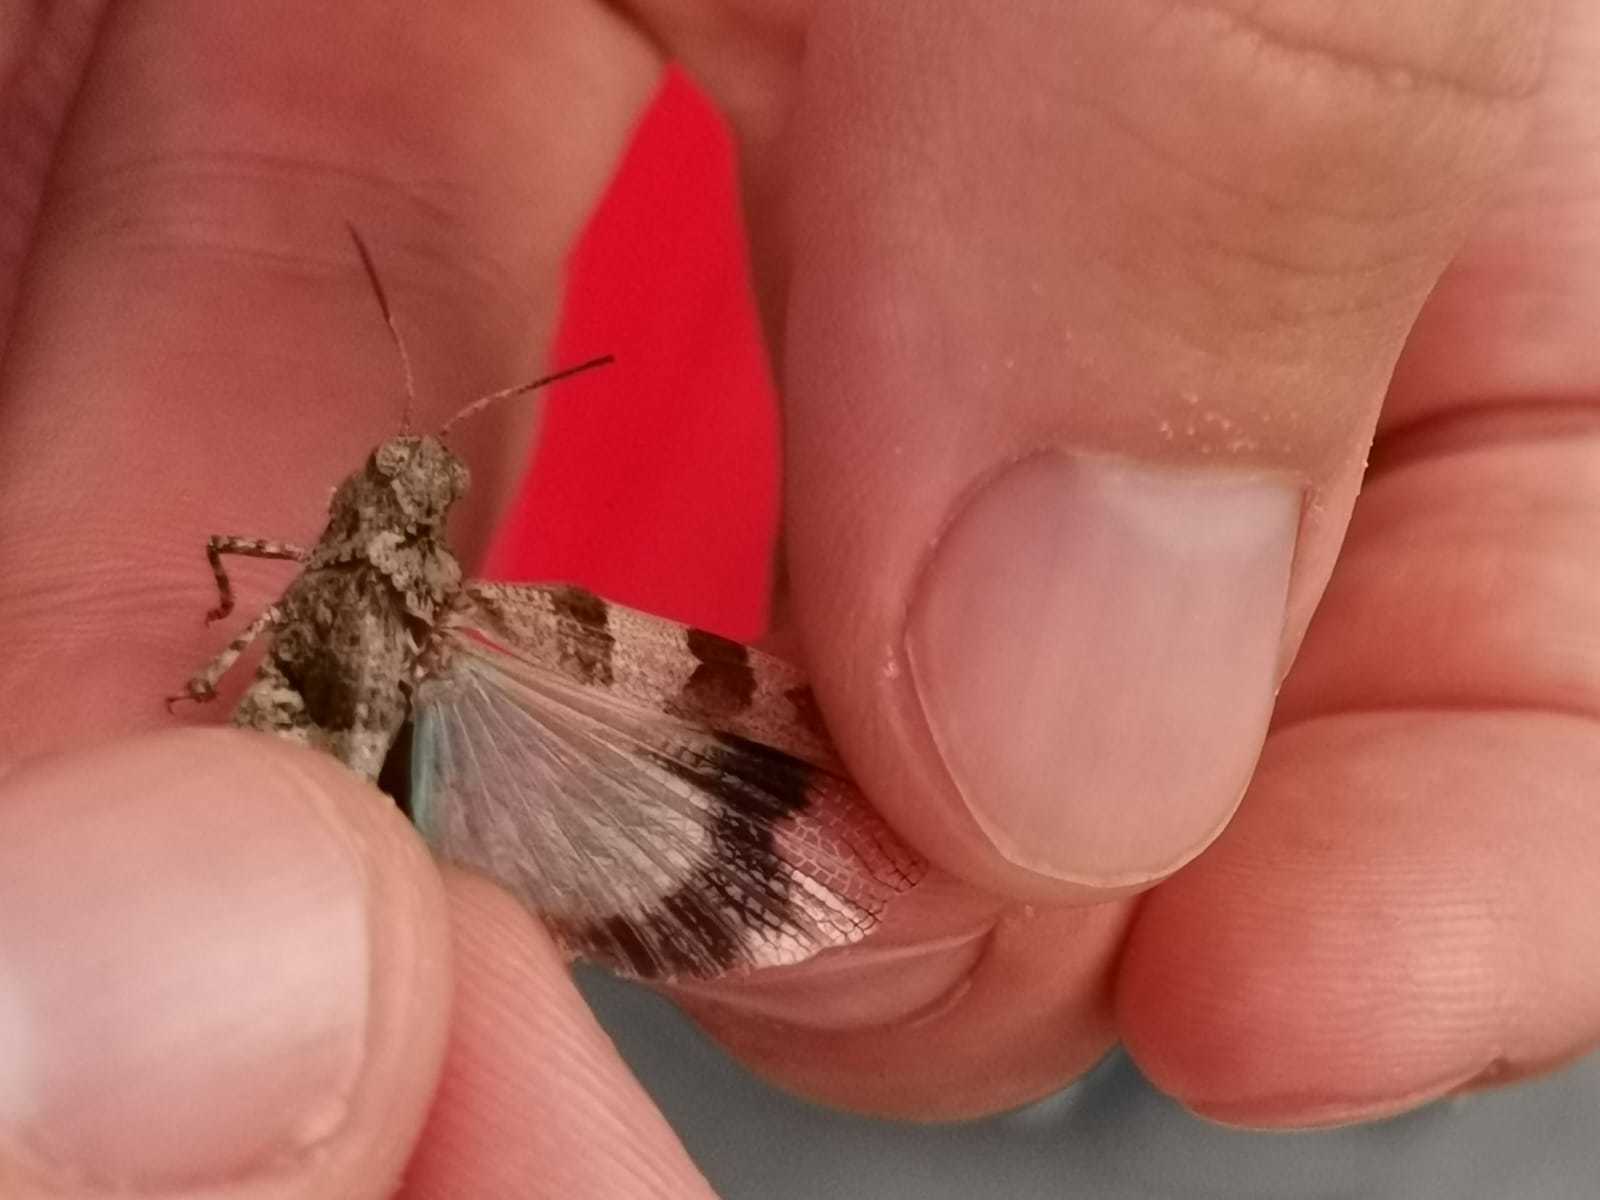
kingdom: Animalia
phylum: Arthropoda
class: Insecta
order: Orthoptera
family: Acrididae
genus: Oedipoda
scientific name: Oedipoda caerulescens
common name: Blue-winged grasshopper
